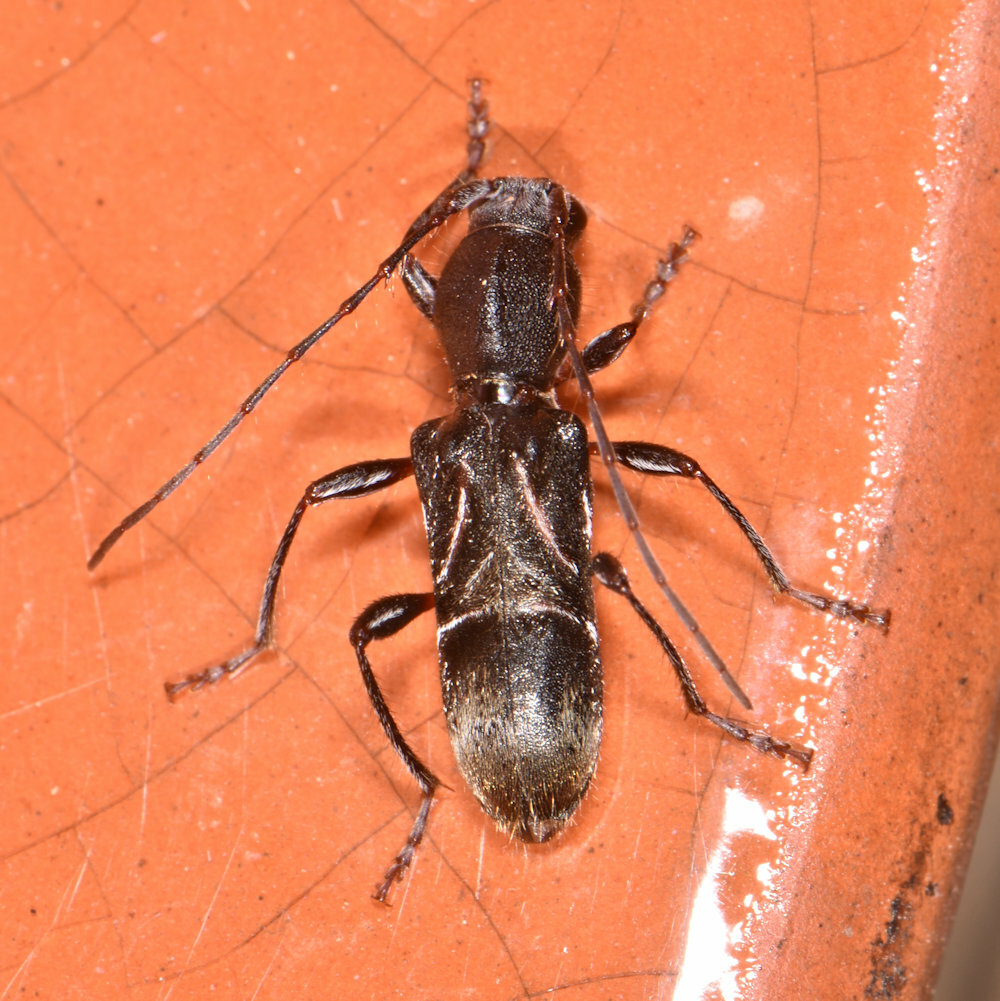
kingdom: Animalia
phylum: Arthropoda
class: Insecta
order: Coleoptera
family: Cerambycidae
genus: Cyrtophorus
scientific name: Cyrtophorus verrucosus
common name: Ant-like longhorn beetle
